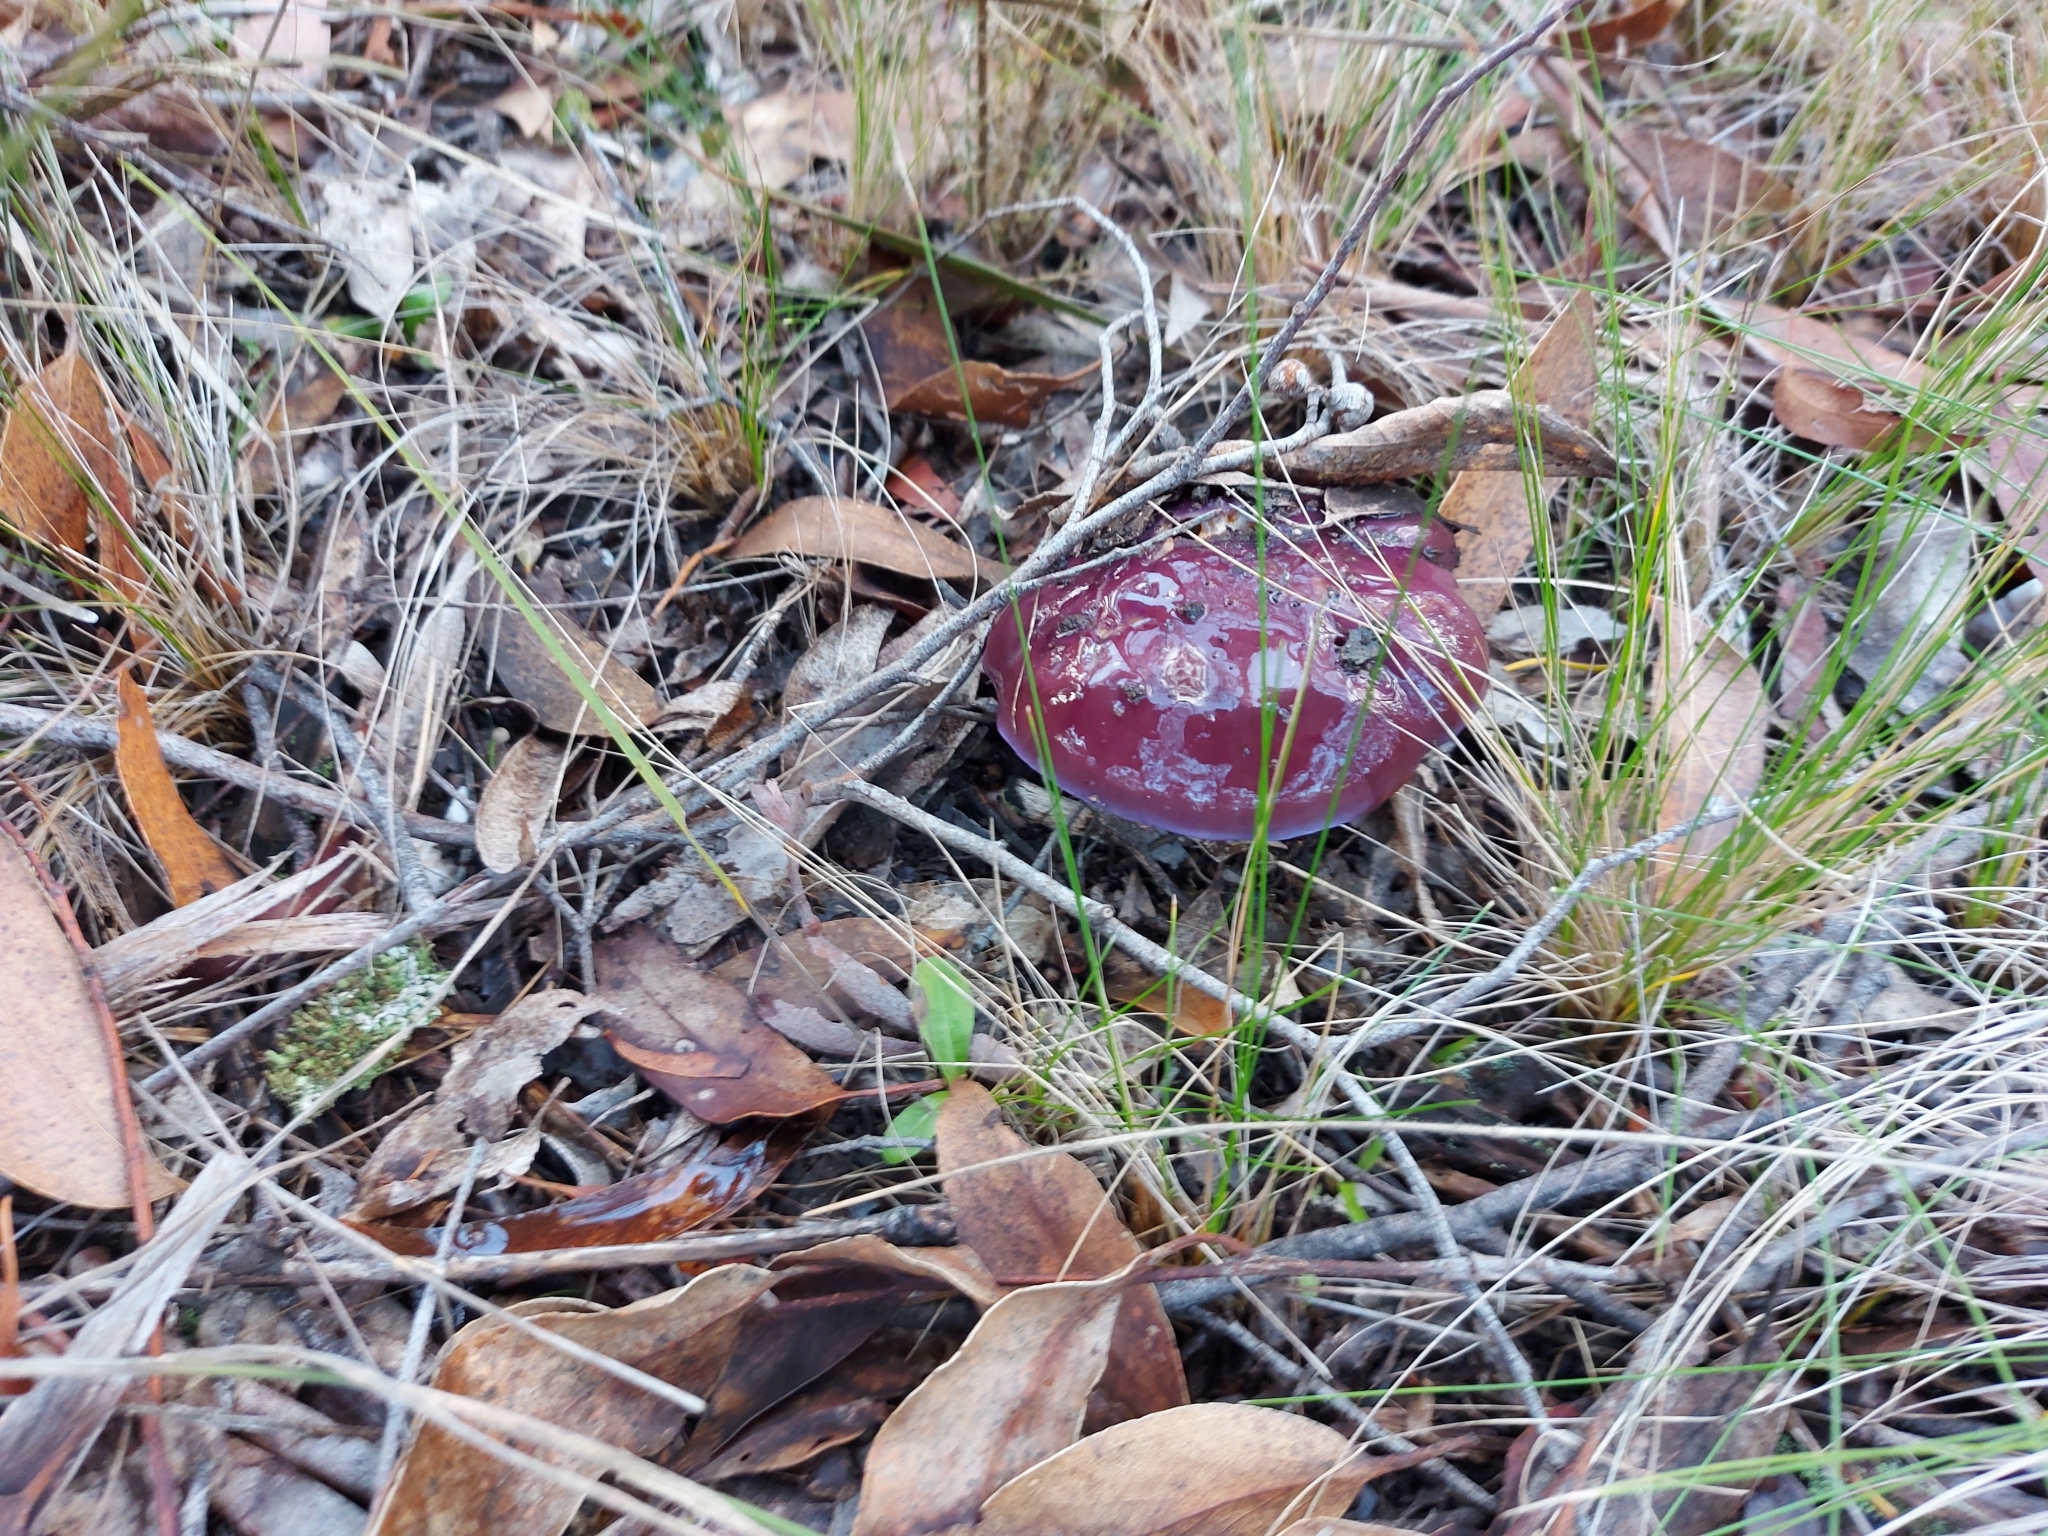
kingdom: Fungi
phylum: Basidiomycota
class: Agaricomycetes
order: Agaricales
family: Cortinariaceae
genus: Cortinarius
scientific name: Cortinarius archeri
